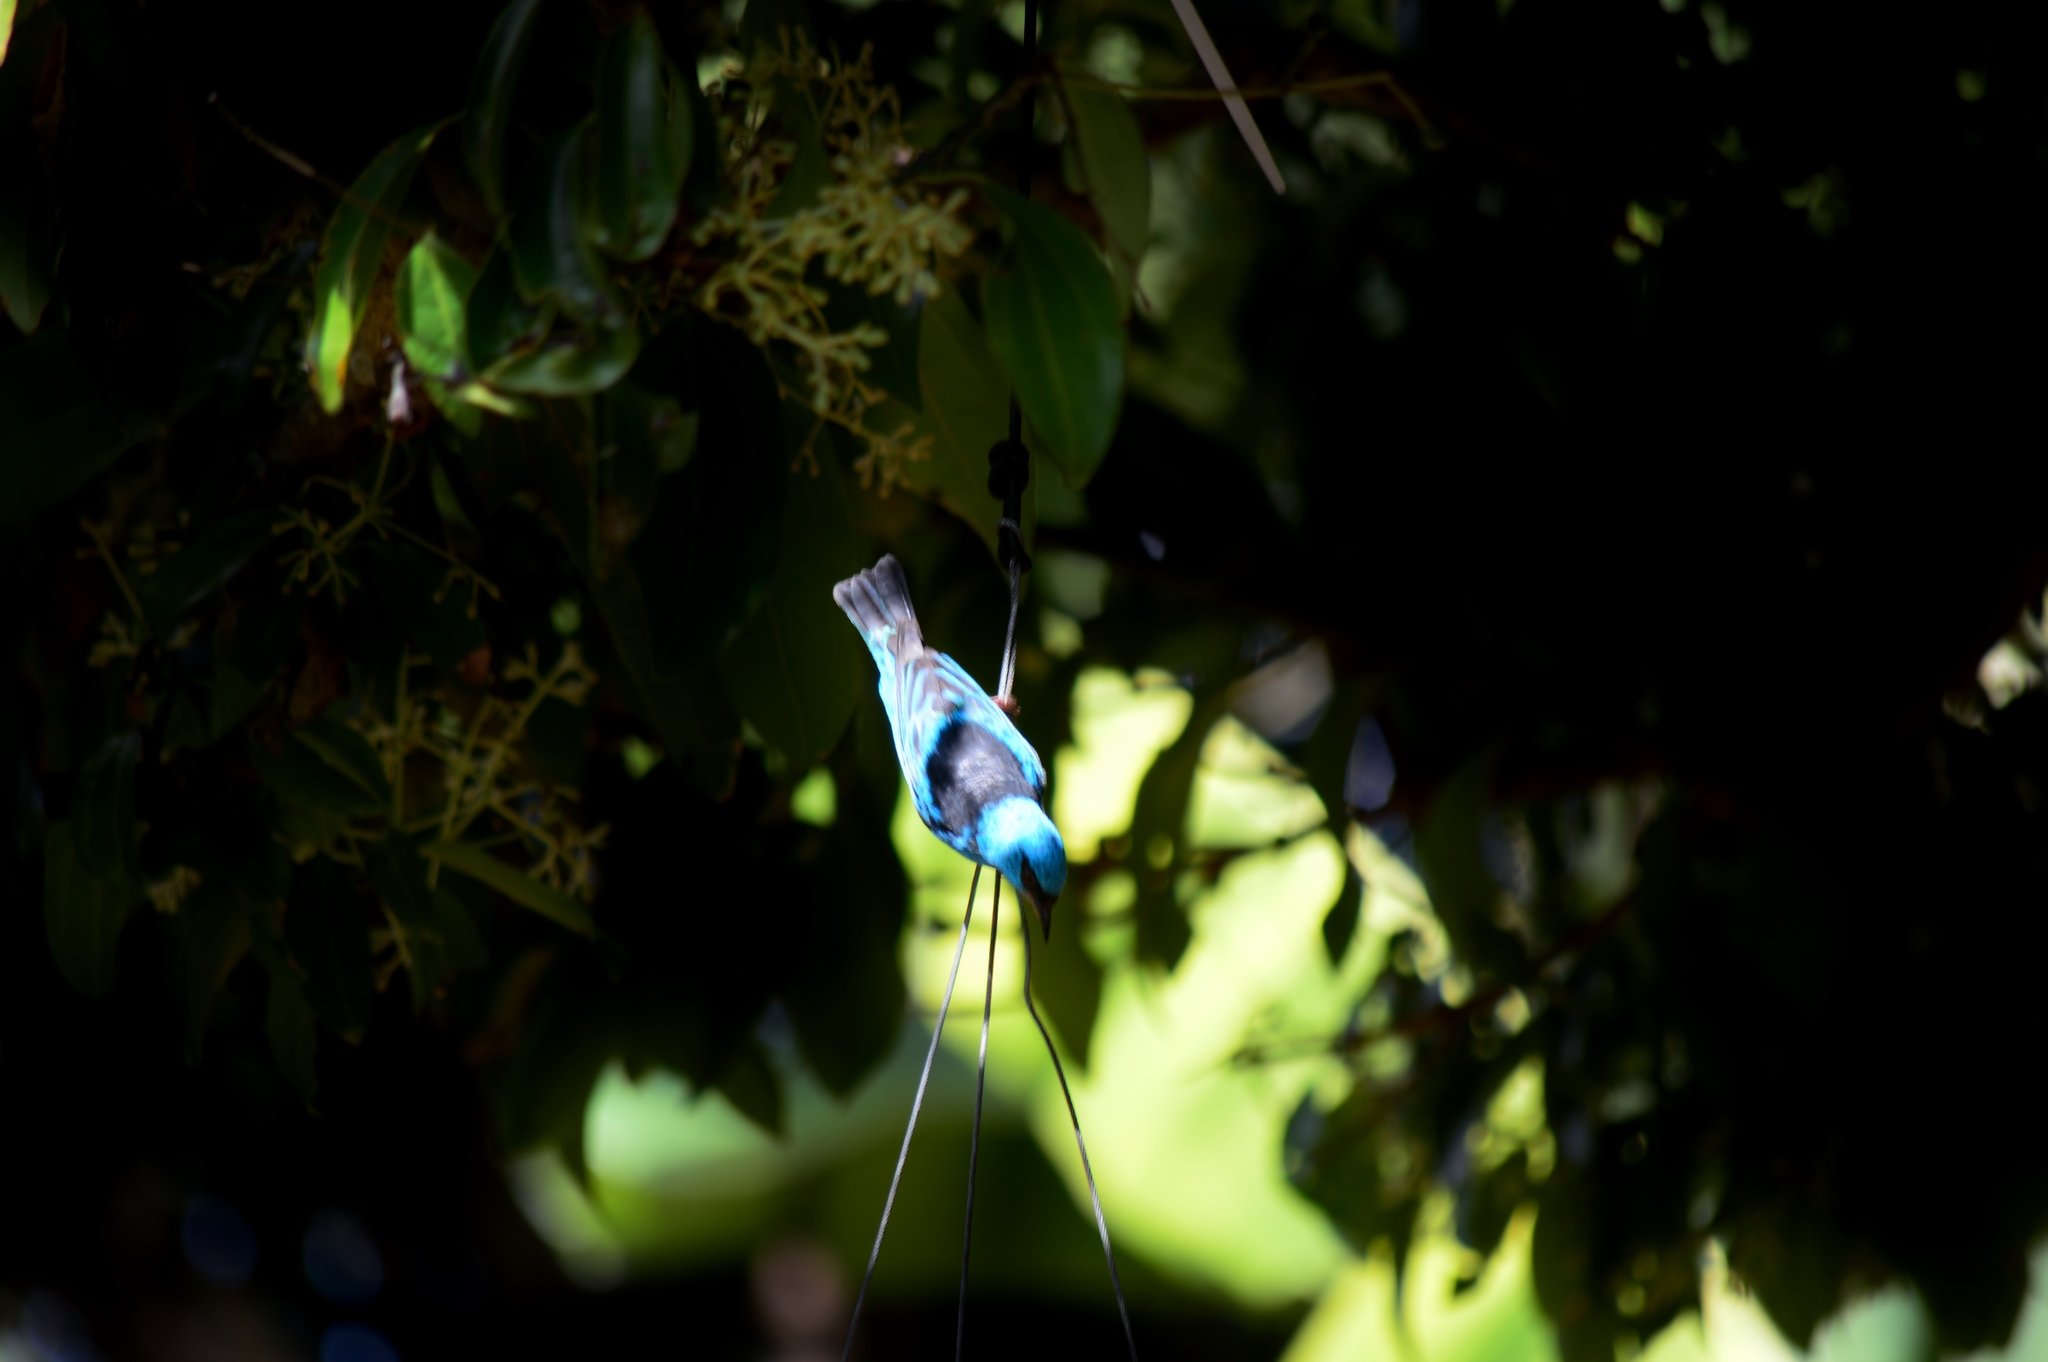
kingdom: Animalia
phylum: Chordata
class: Aves
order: Passeriformes
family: Thraupidae
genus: Dacnis
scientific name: Dacnis cayana
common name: Blue dacnis
